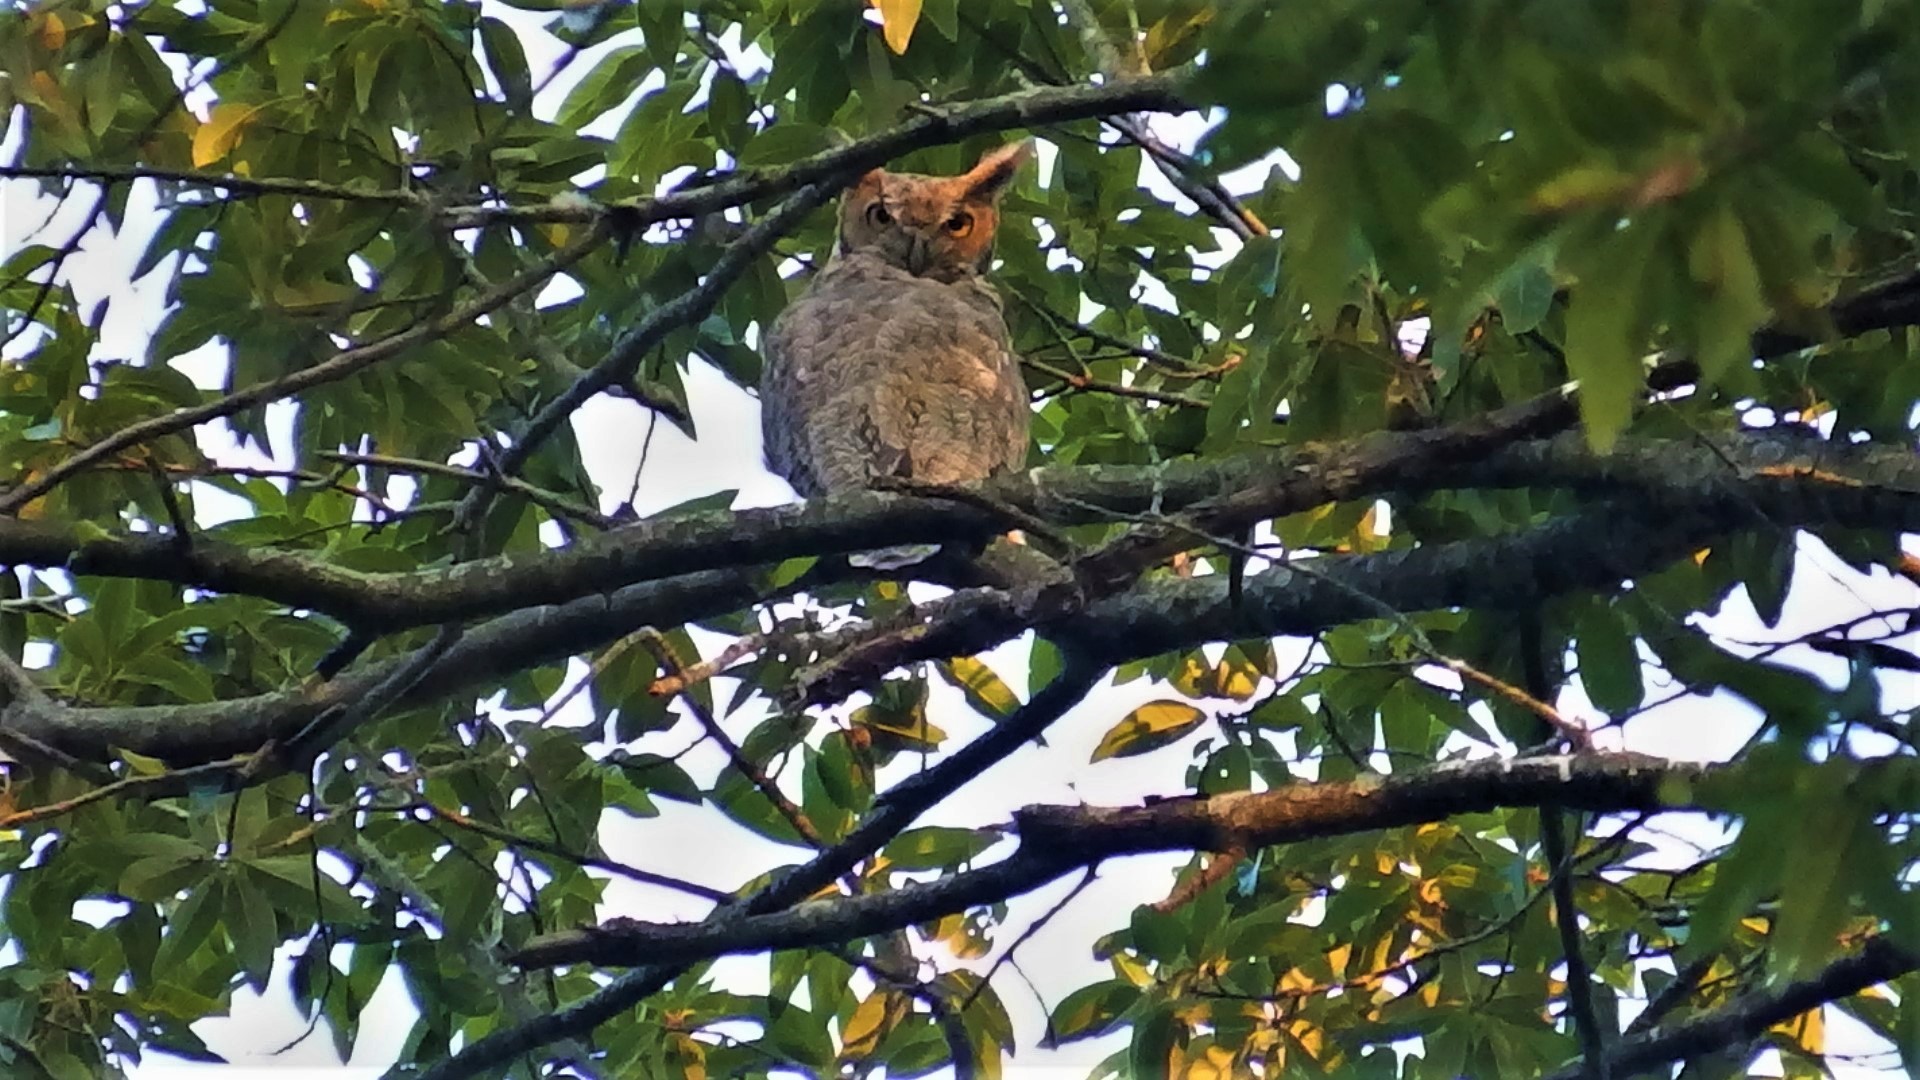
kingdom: Animalia
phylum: Chordata
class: Aves
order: Strigiformes
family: Strigidae
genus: Bubo
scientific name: Bubo virginianus
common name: Great horned owl
